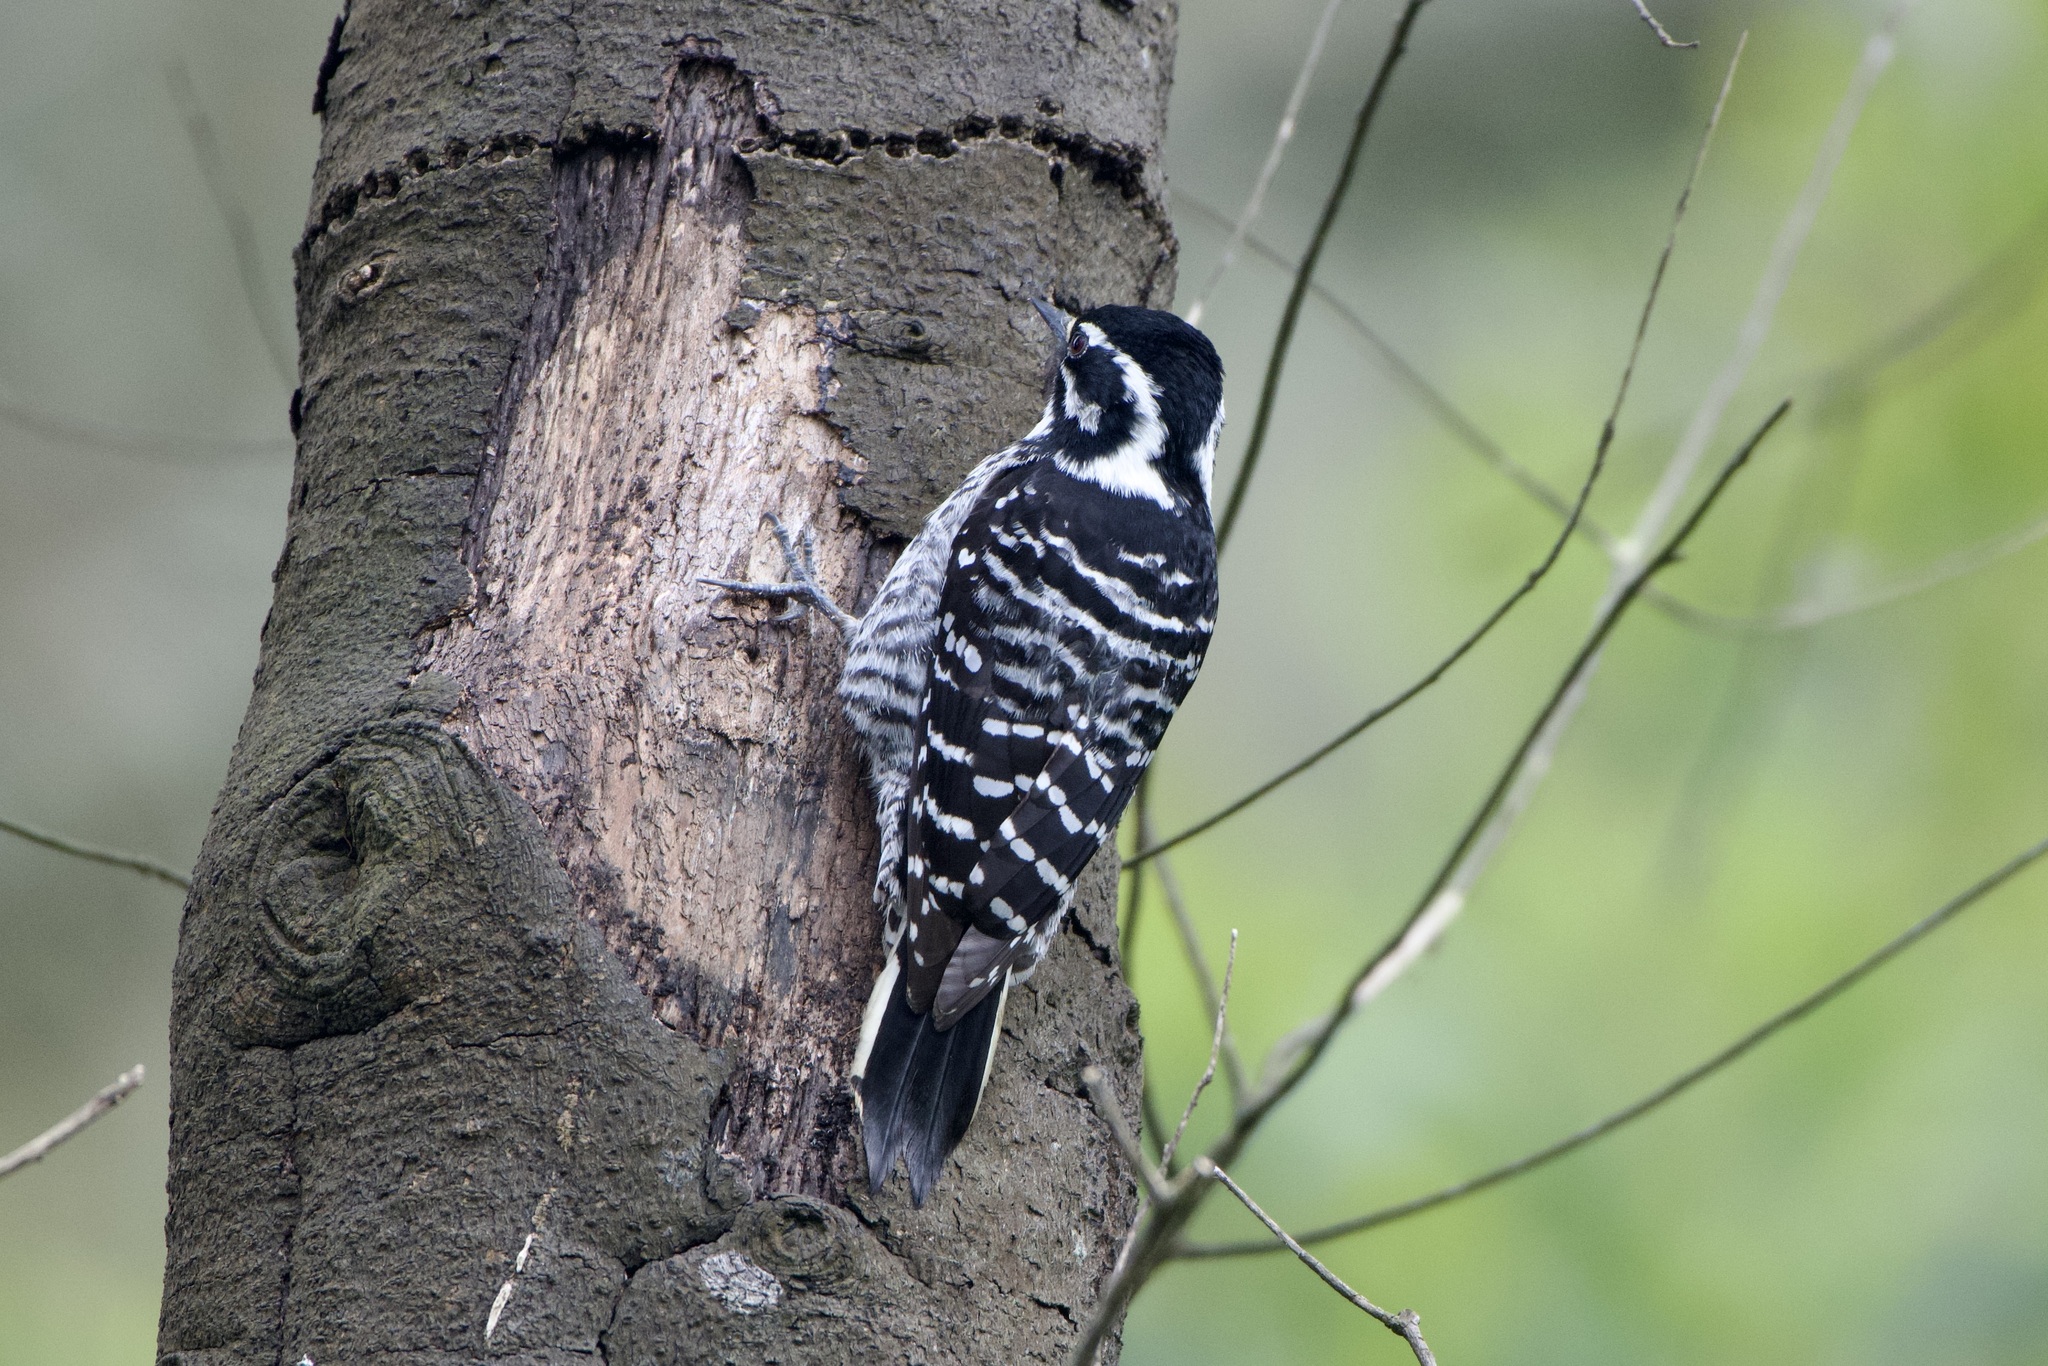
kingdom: Animalia
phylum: Chordata
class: Aves
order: Piciformes
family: Picidae
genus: Dryobates
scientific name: Dryobates nuttallii
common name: Nuttall's woodpecker
